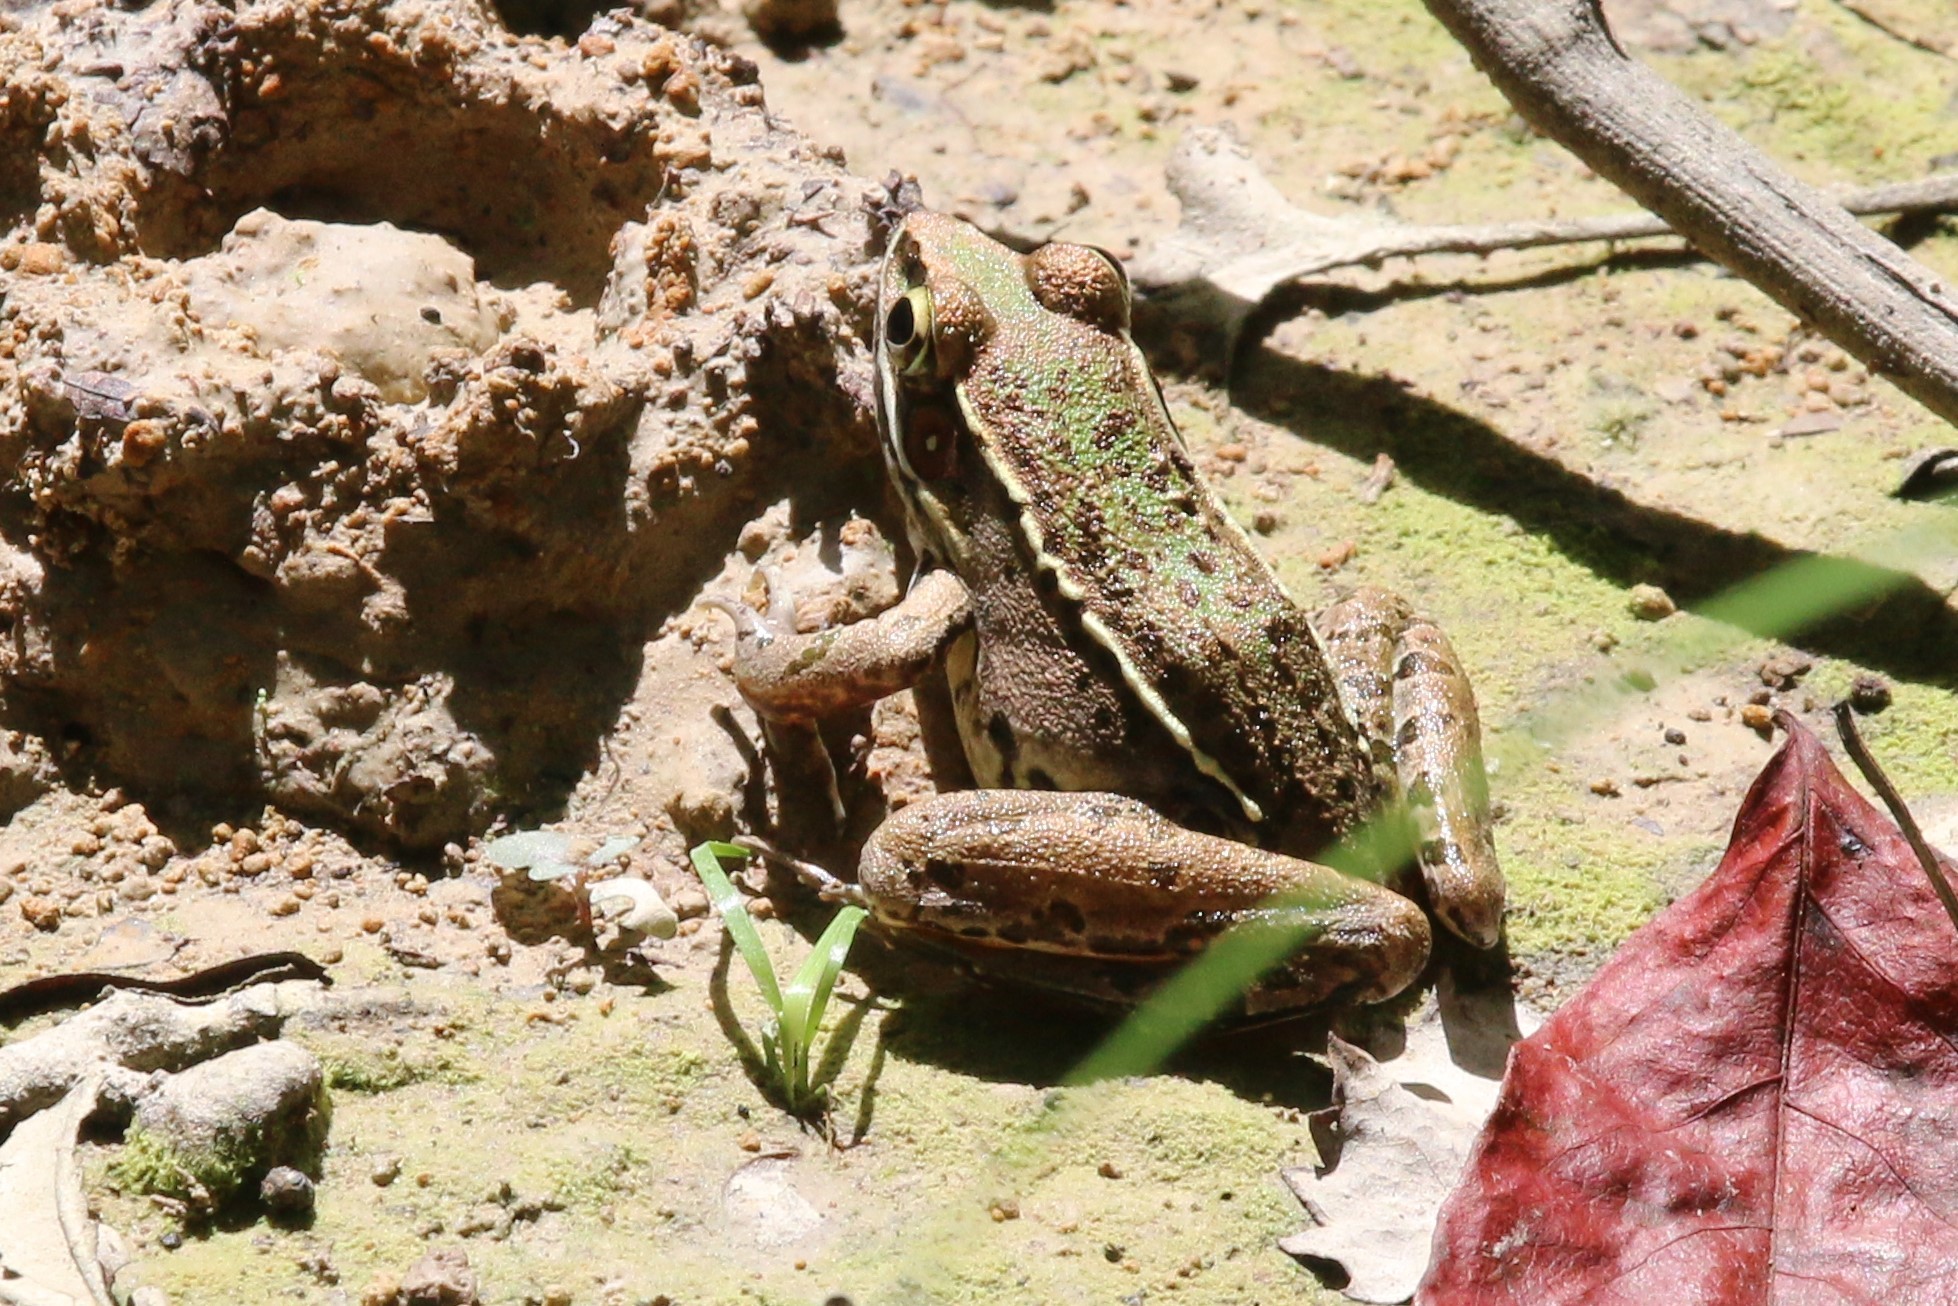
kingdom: Animalia
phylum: Chordata
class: Amphibia
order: Anura
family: Ranidae
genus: Lithobates
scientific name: Lithobates sphenocephalus
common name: Southern leopard frog
